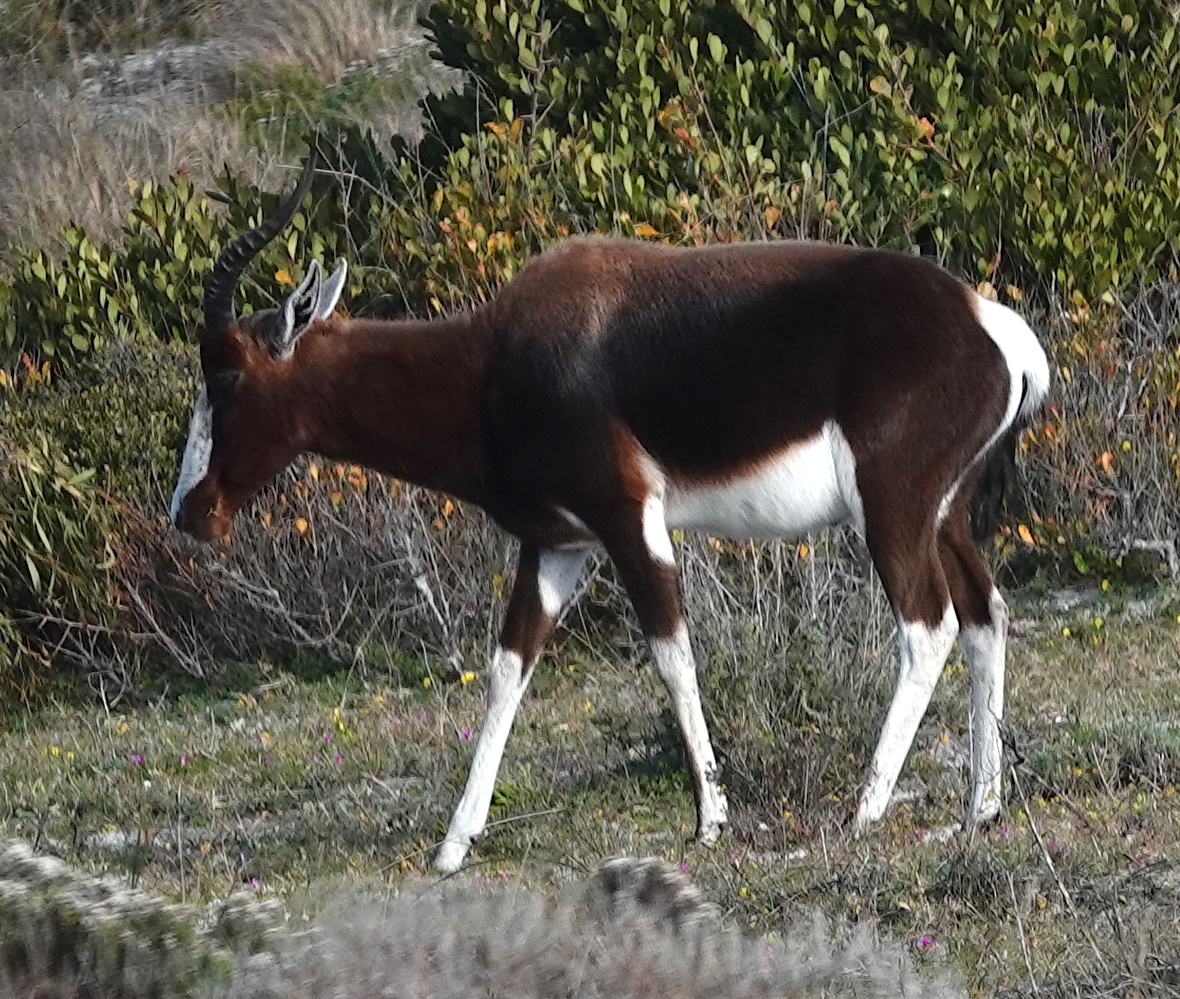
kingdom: Animalia
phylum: Chordata
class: Mammalia
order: Artiodactyla
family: Bovidae
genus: Damaliscus
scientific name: Damaliscus pygargus
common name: Bontebok
